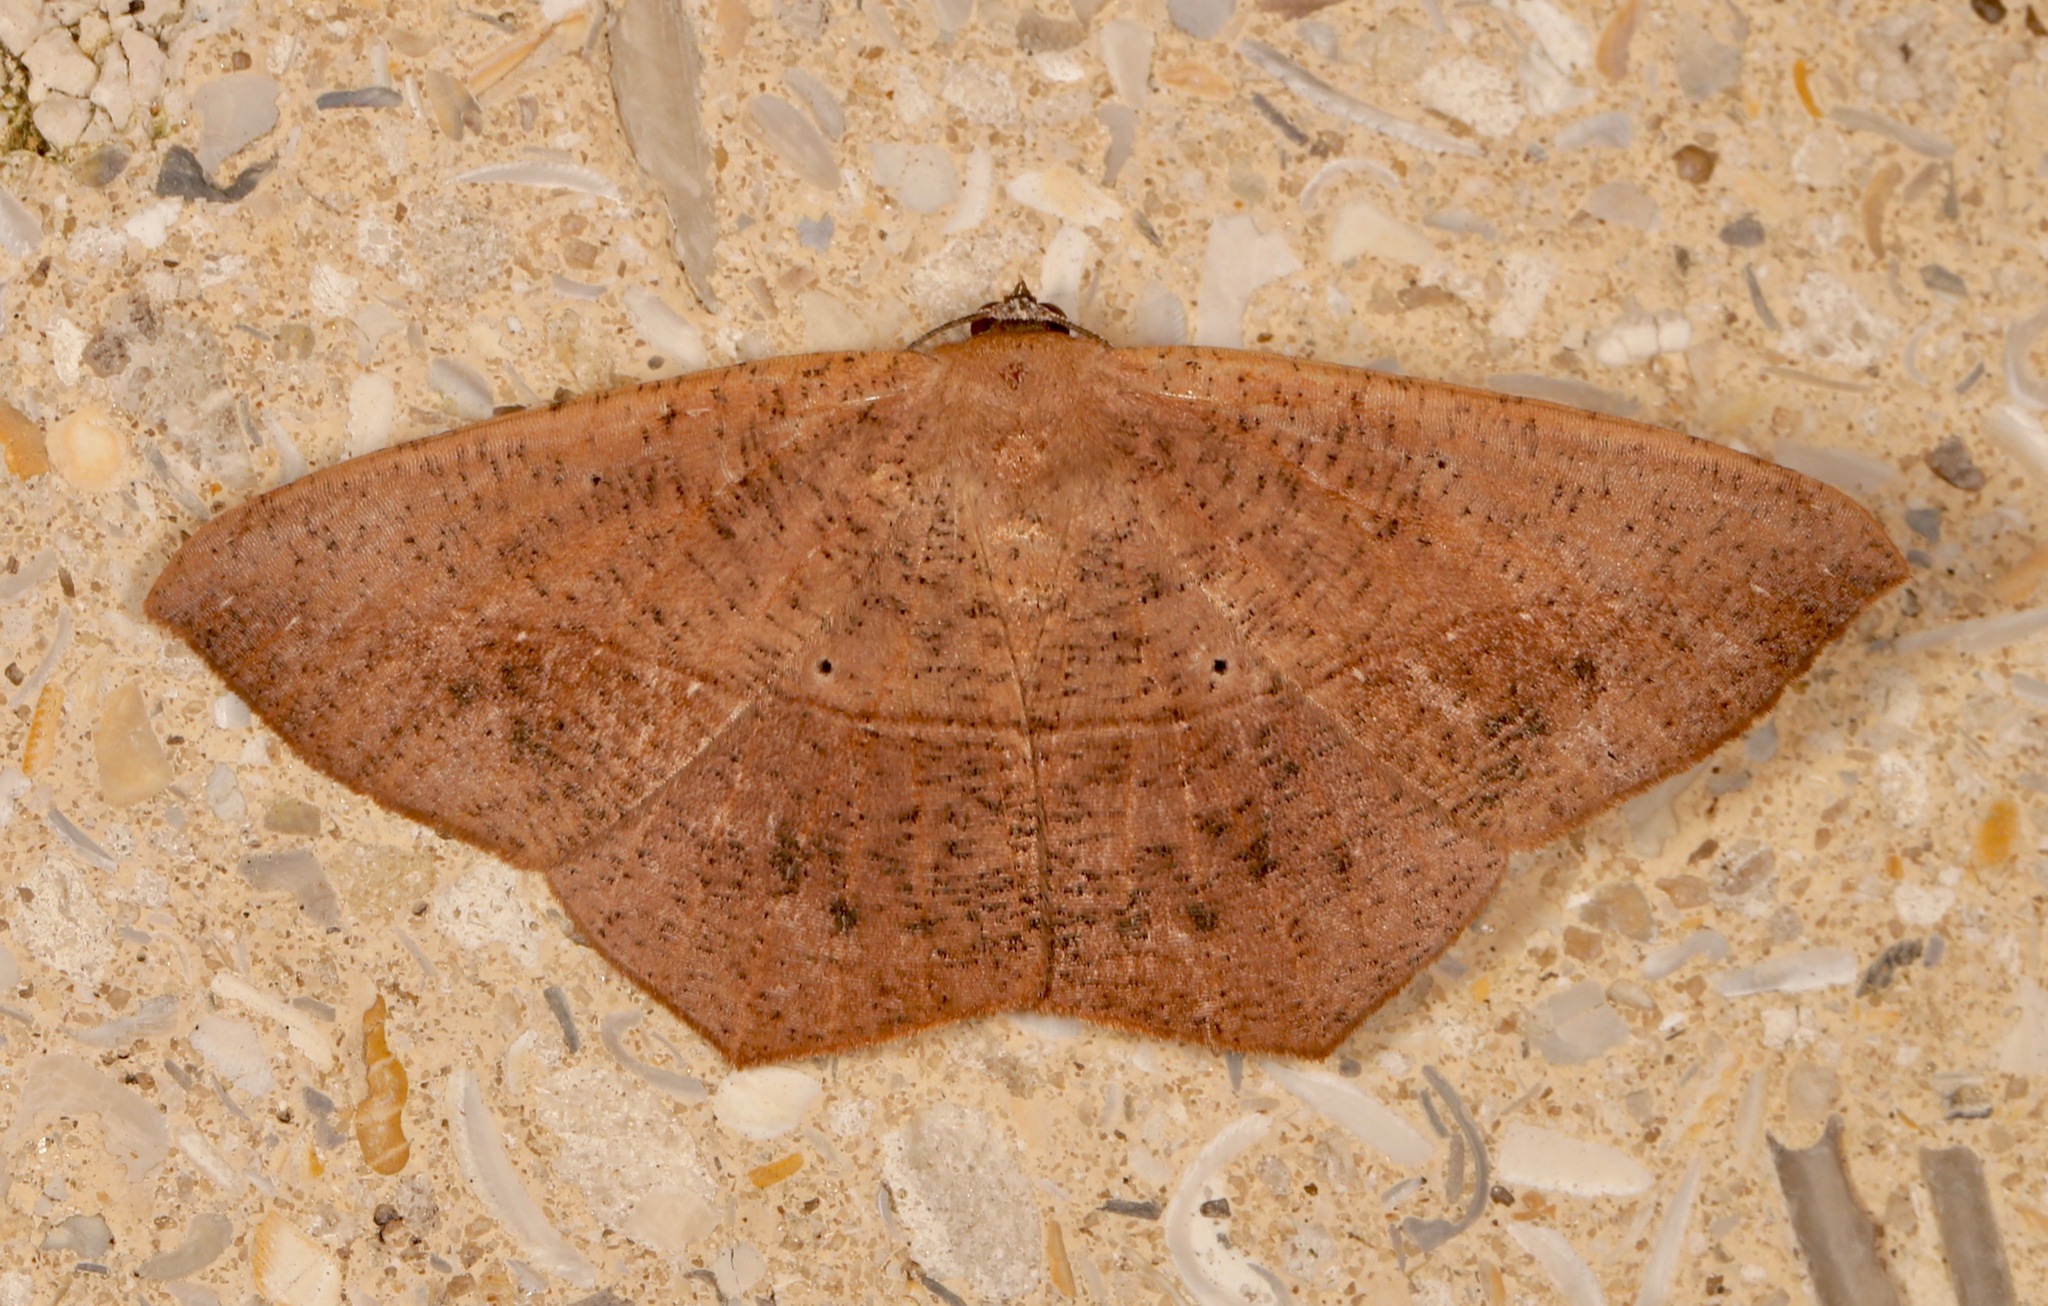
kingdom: Animalia
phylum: Arthropoda
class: Insecta
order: Lepidoptera
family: Geometridae
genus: Prochoerodes
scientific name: Prochoerodes lineola
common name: Large maple spanworm
